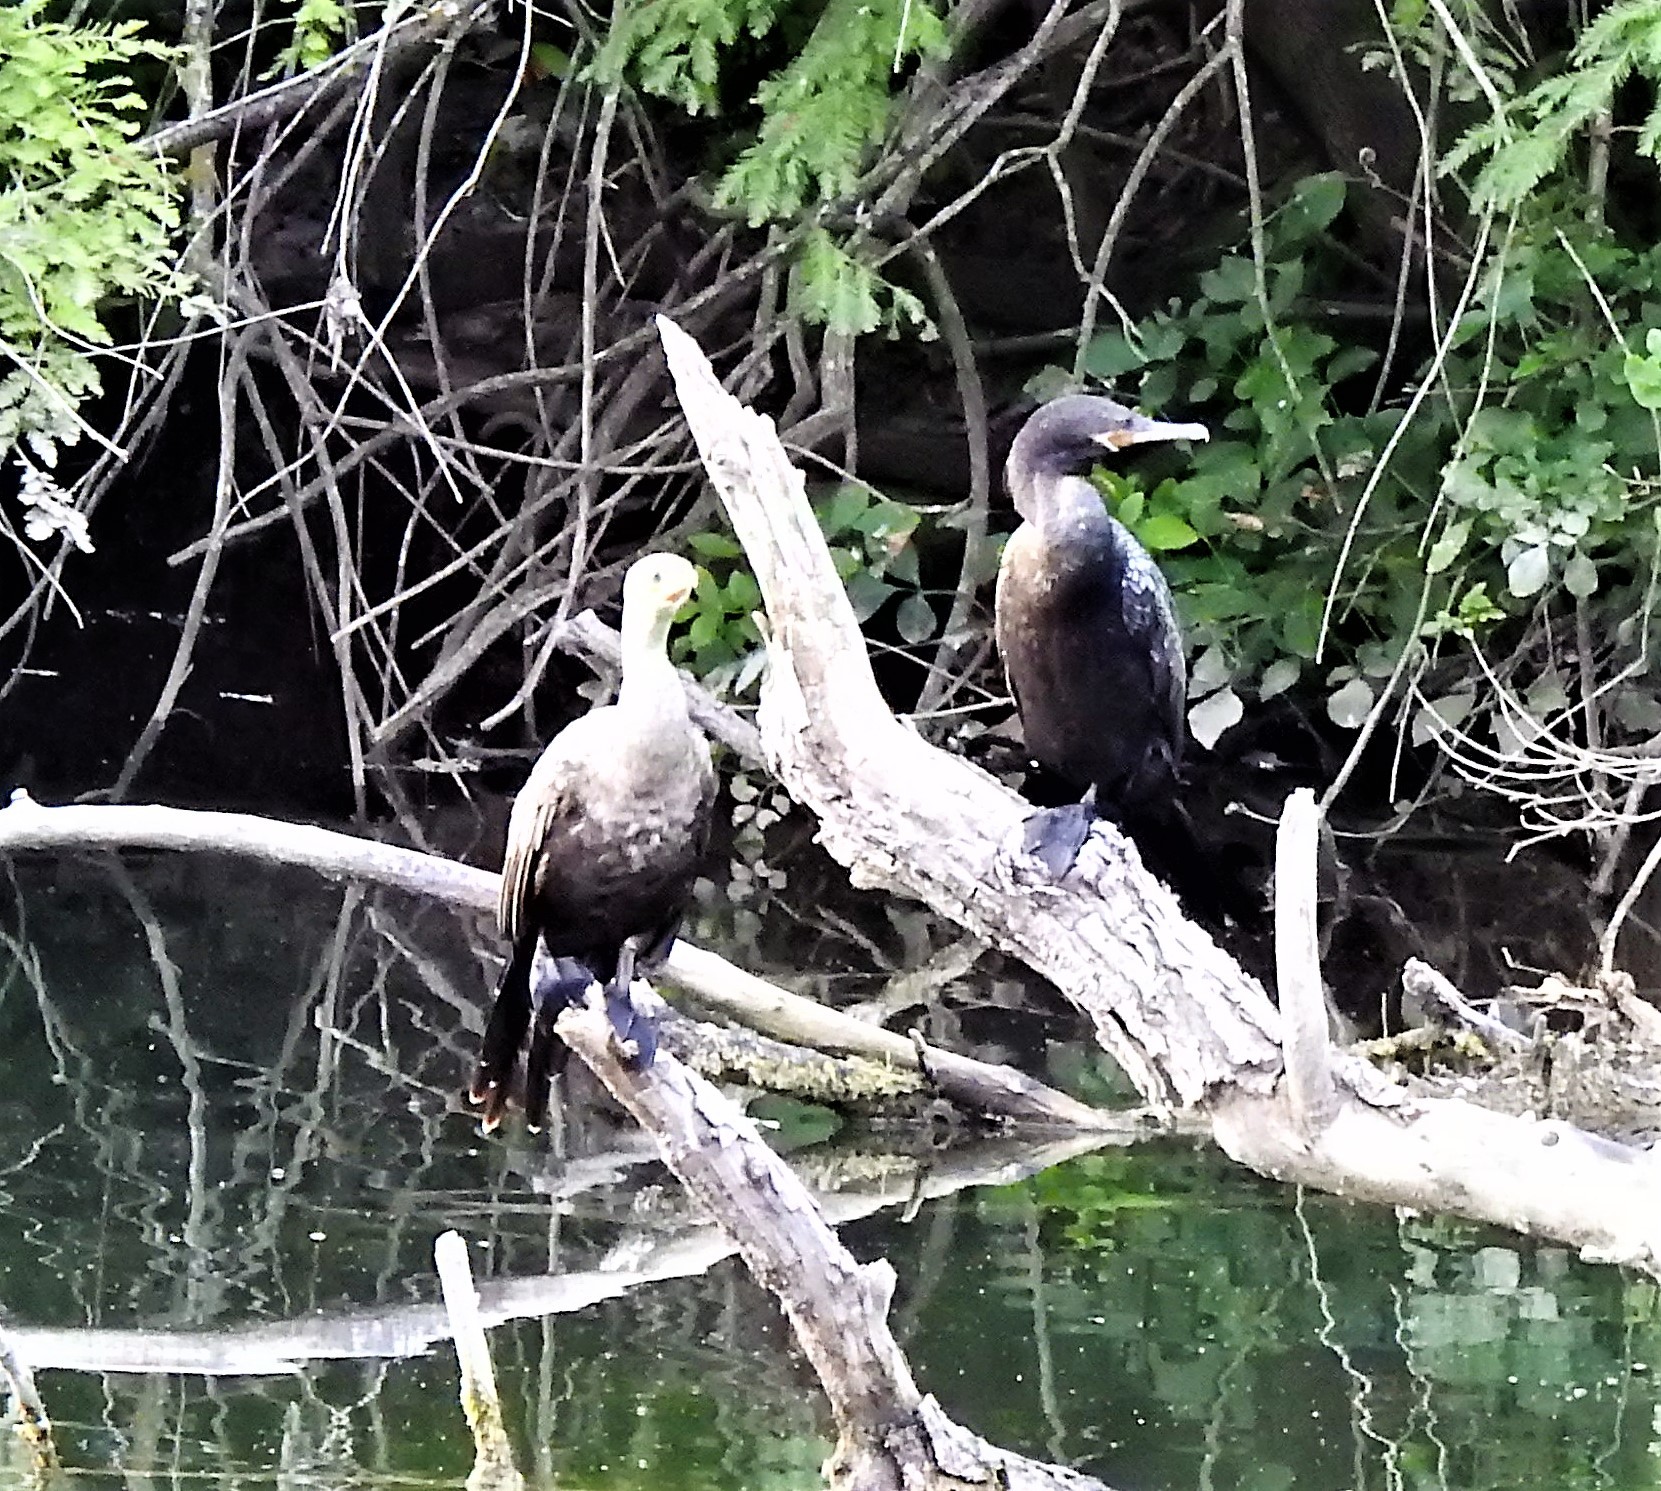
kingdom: Animalia
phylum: Chordata
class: Aves
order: Suliformes
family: Phalacrocoracidae
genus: Phalacrocorax
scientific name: Phalacrocorax brasilianus
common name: Neotropic cormorant
